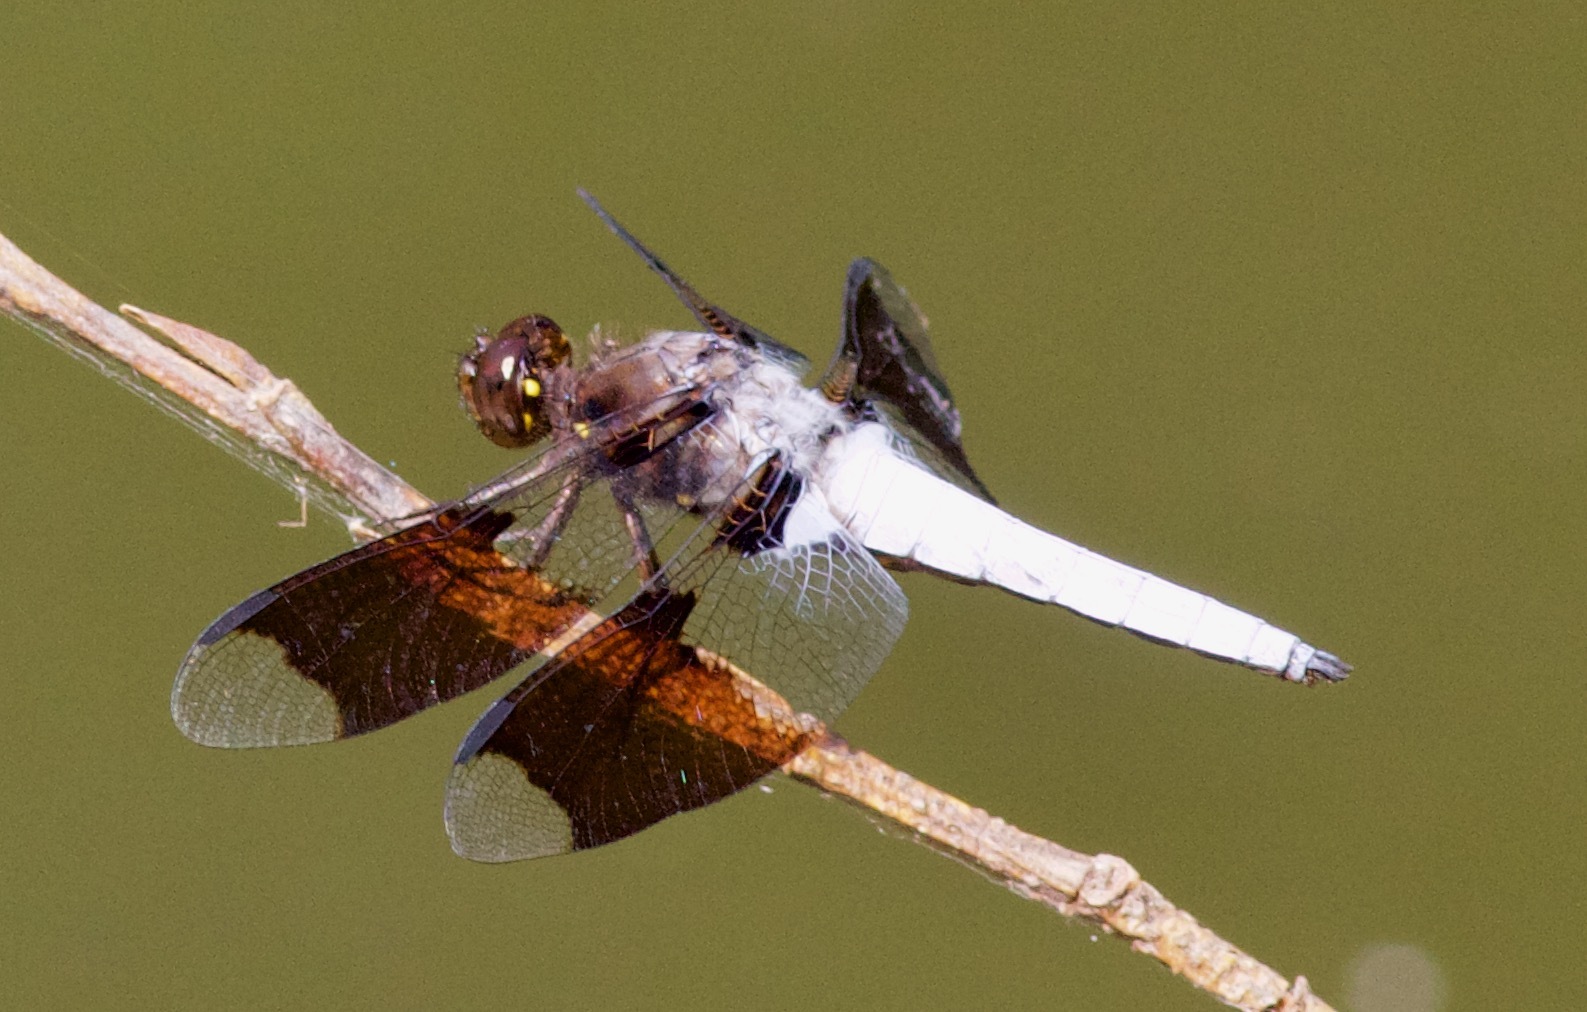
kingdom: Animalia
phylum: Arthropoda
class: Insecta
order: Odonata
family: Libellulidae
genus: Plathemis
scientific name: Plathemis lydia
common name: Common whitetail
